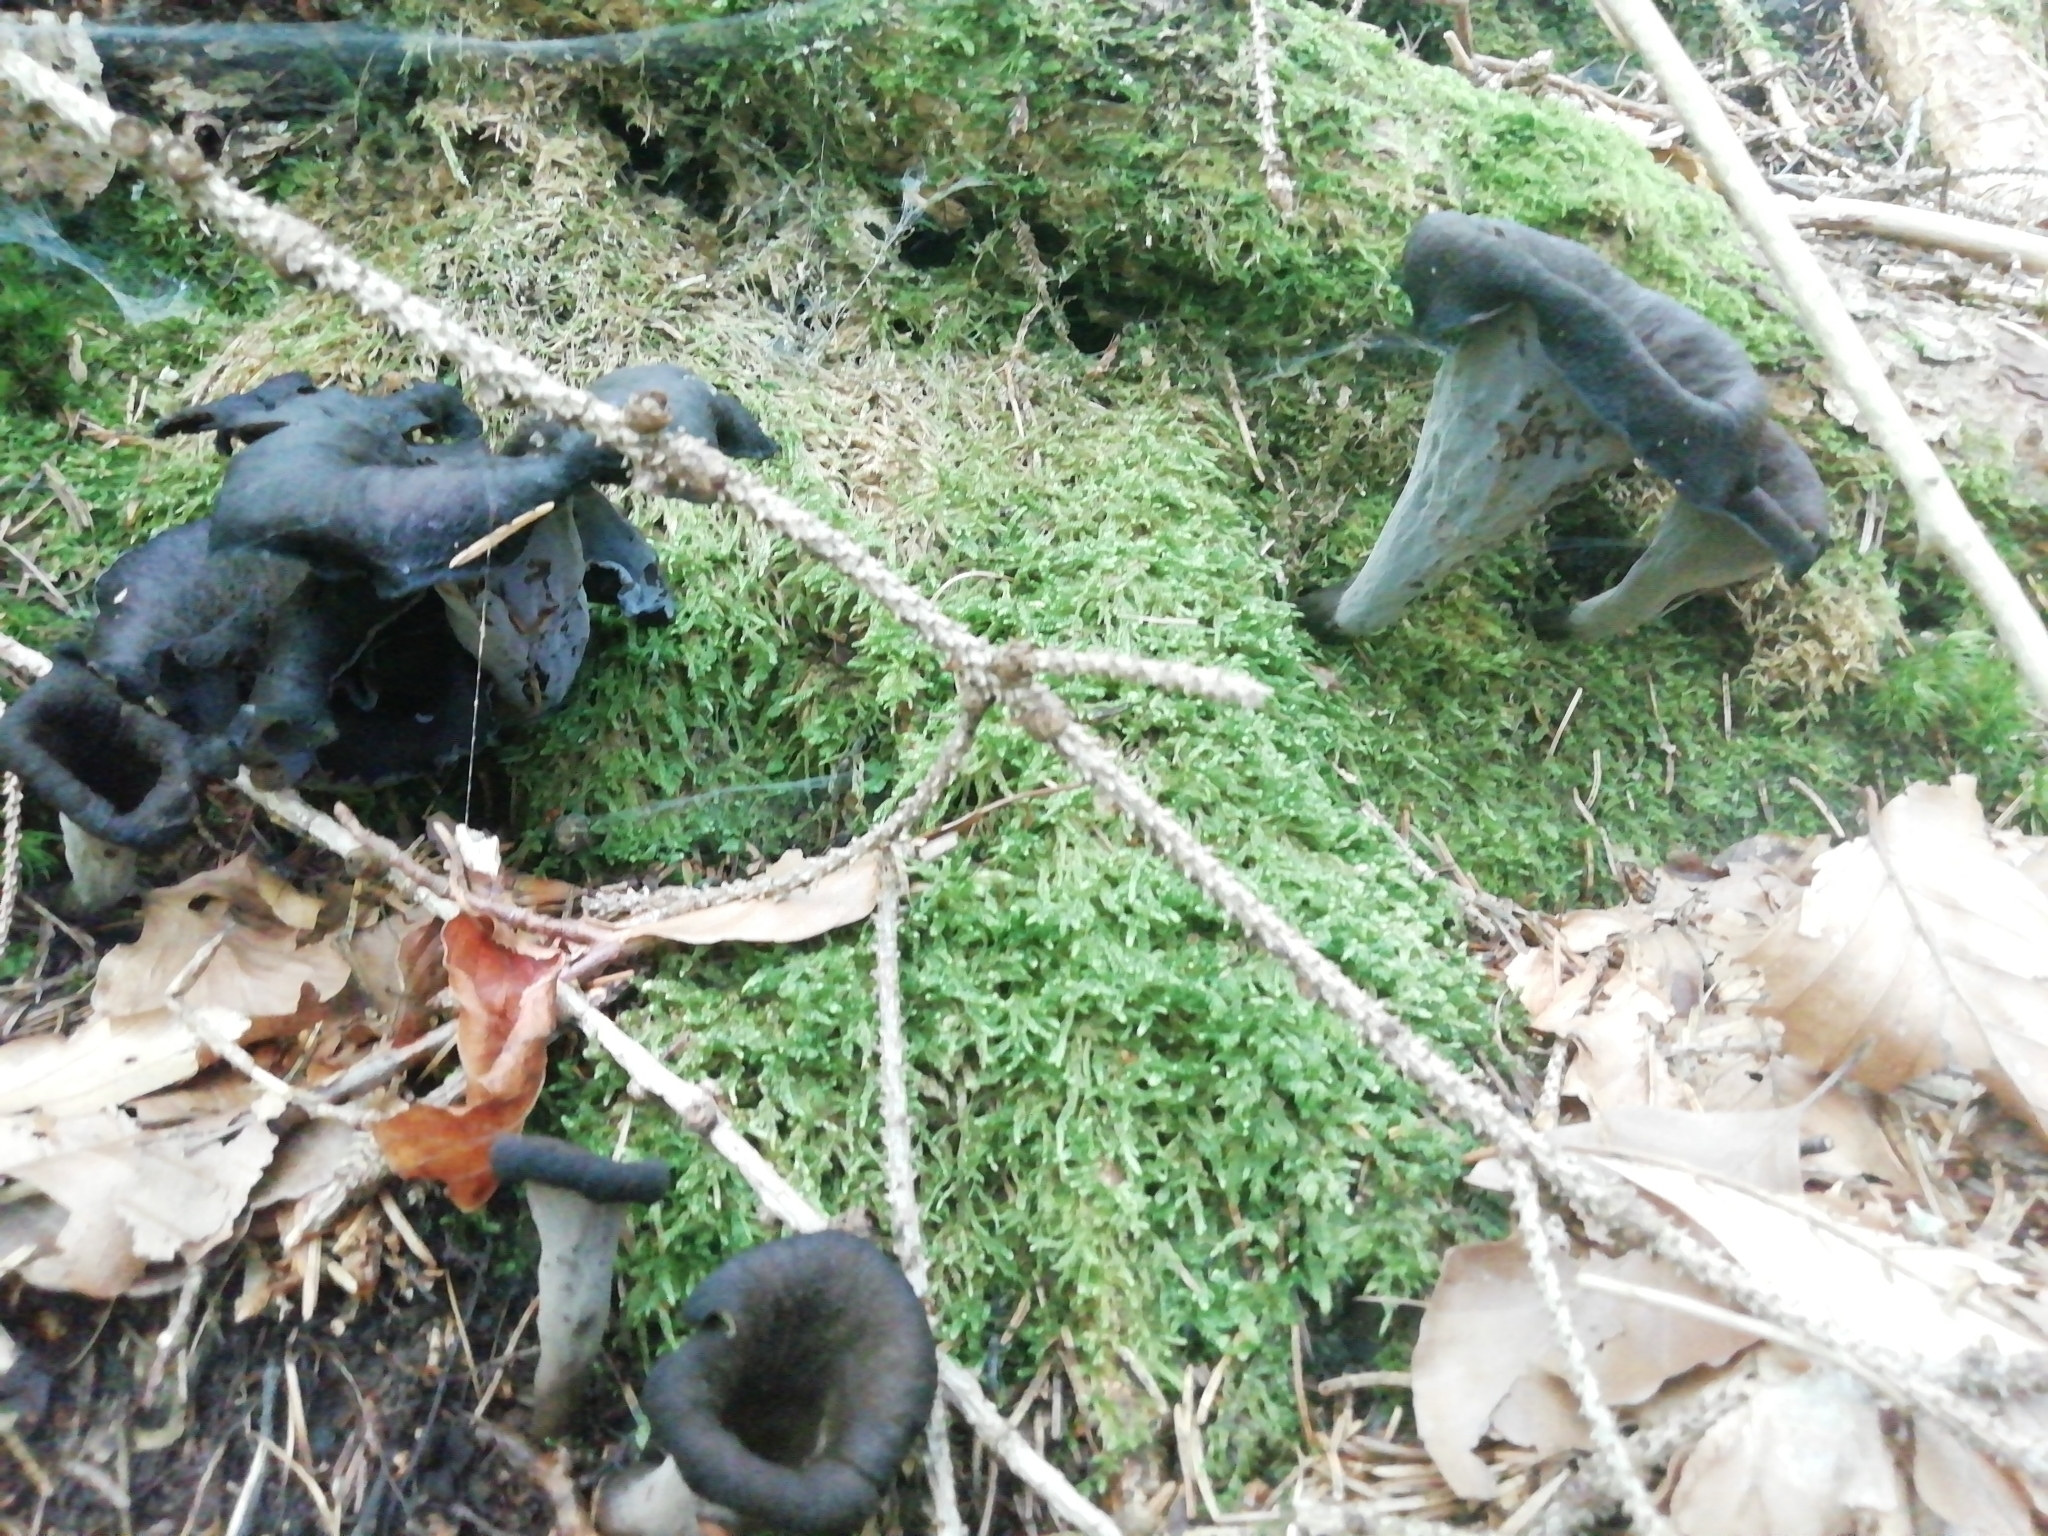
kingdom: Fungi
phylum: Basidiomycota
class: Agaricomycetes
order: Cantharellales
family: Hydnaceae
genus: Craterellus
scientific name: Craterellus cornucopioides
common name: Horn of plenty
